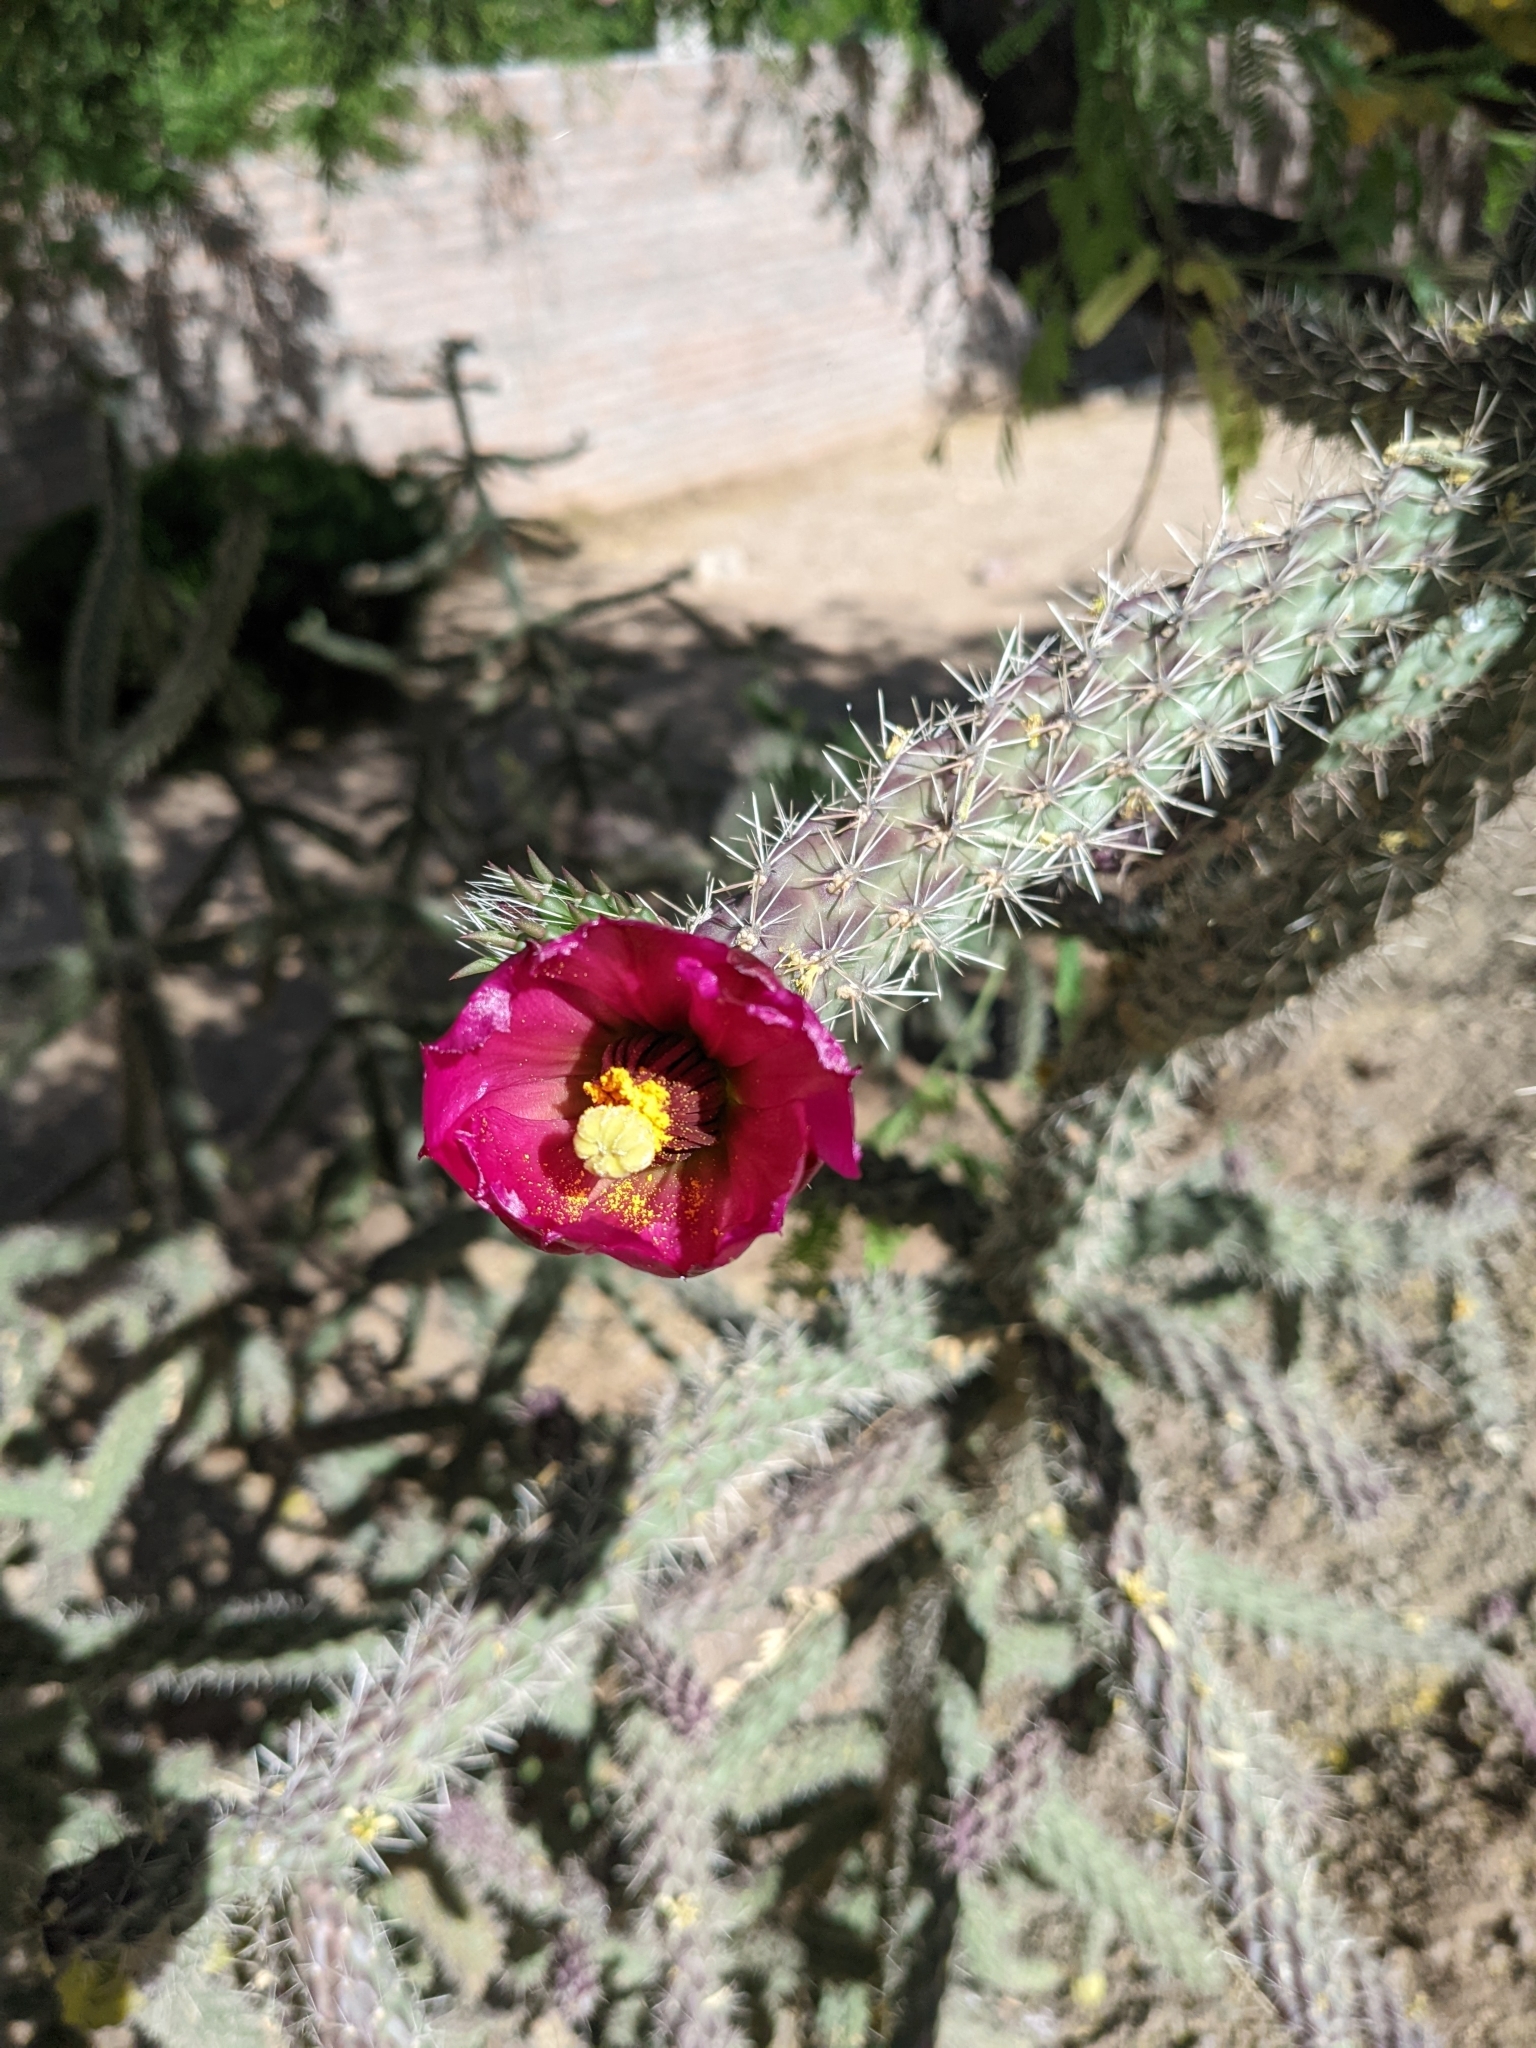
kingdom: Plantae
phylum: Tracheophyta
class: Magnoliopsida
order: Caryophyllales
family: Cactaceae
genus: Cylindropuntia
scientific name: Cylindropuntia imbricata
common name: Candelabrum cactus
